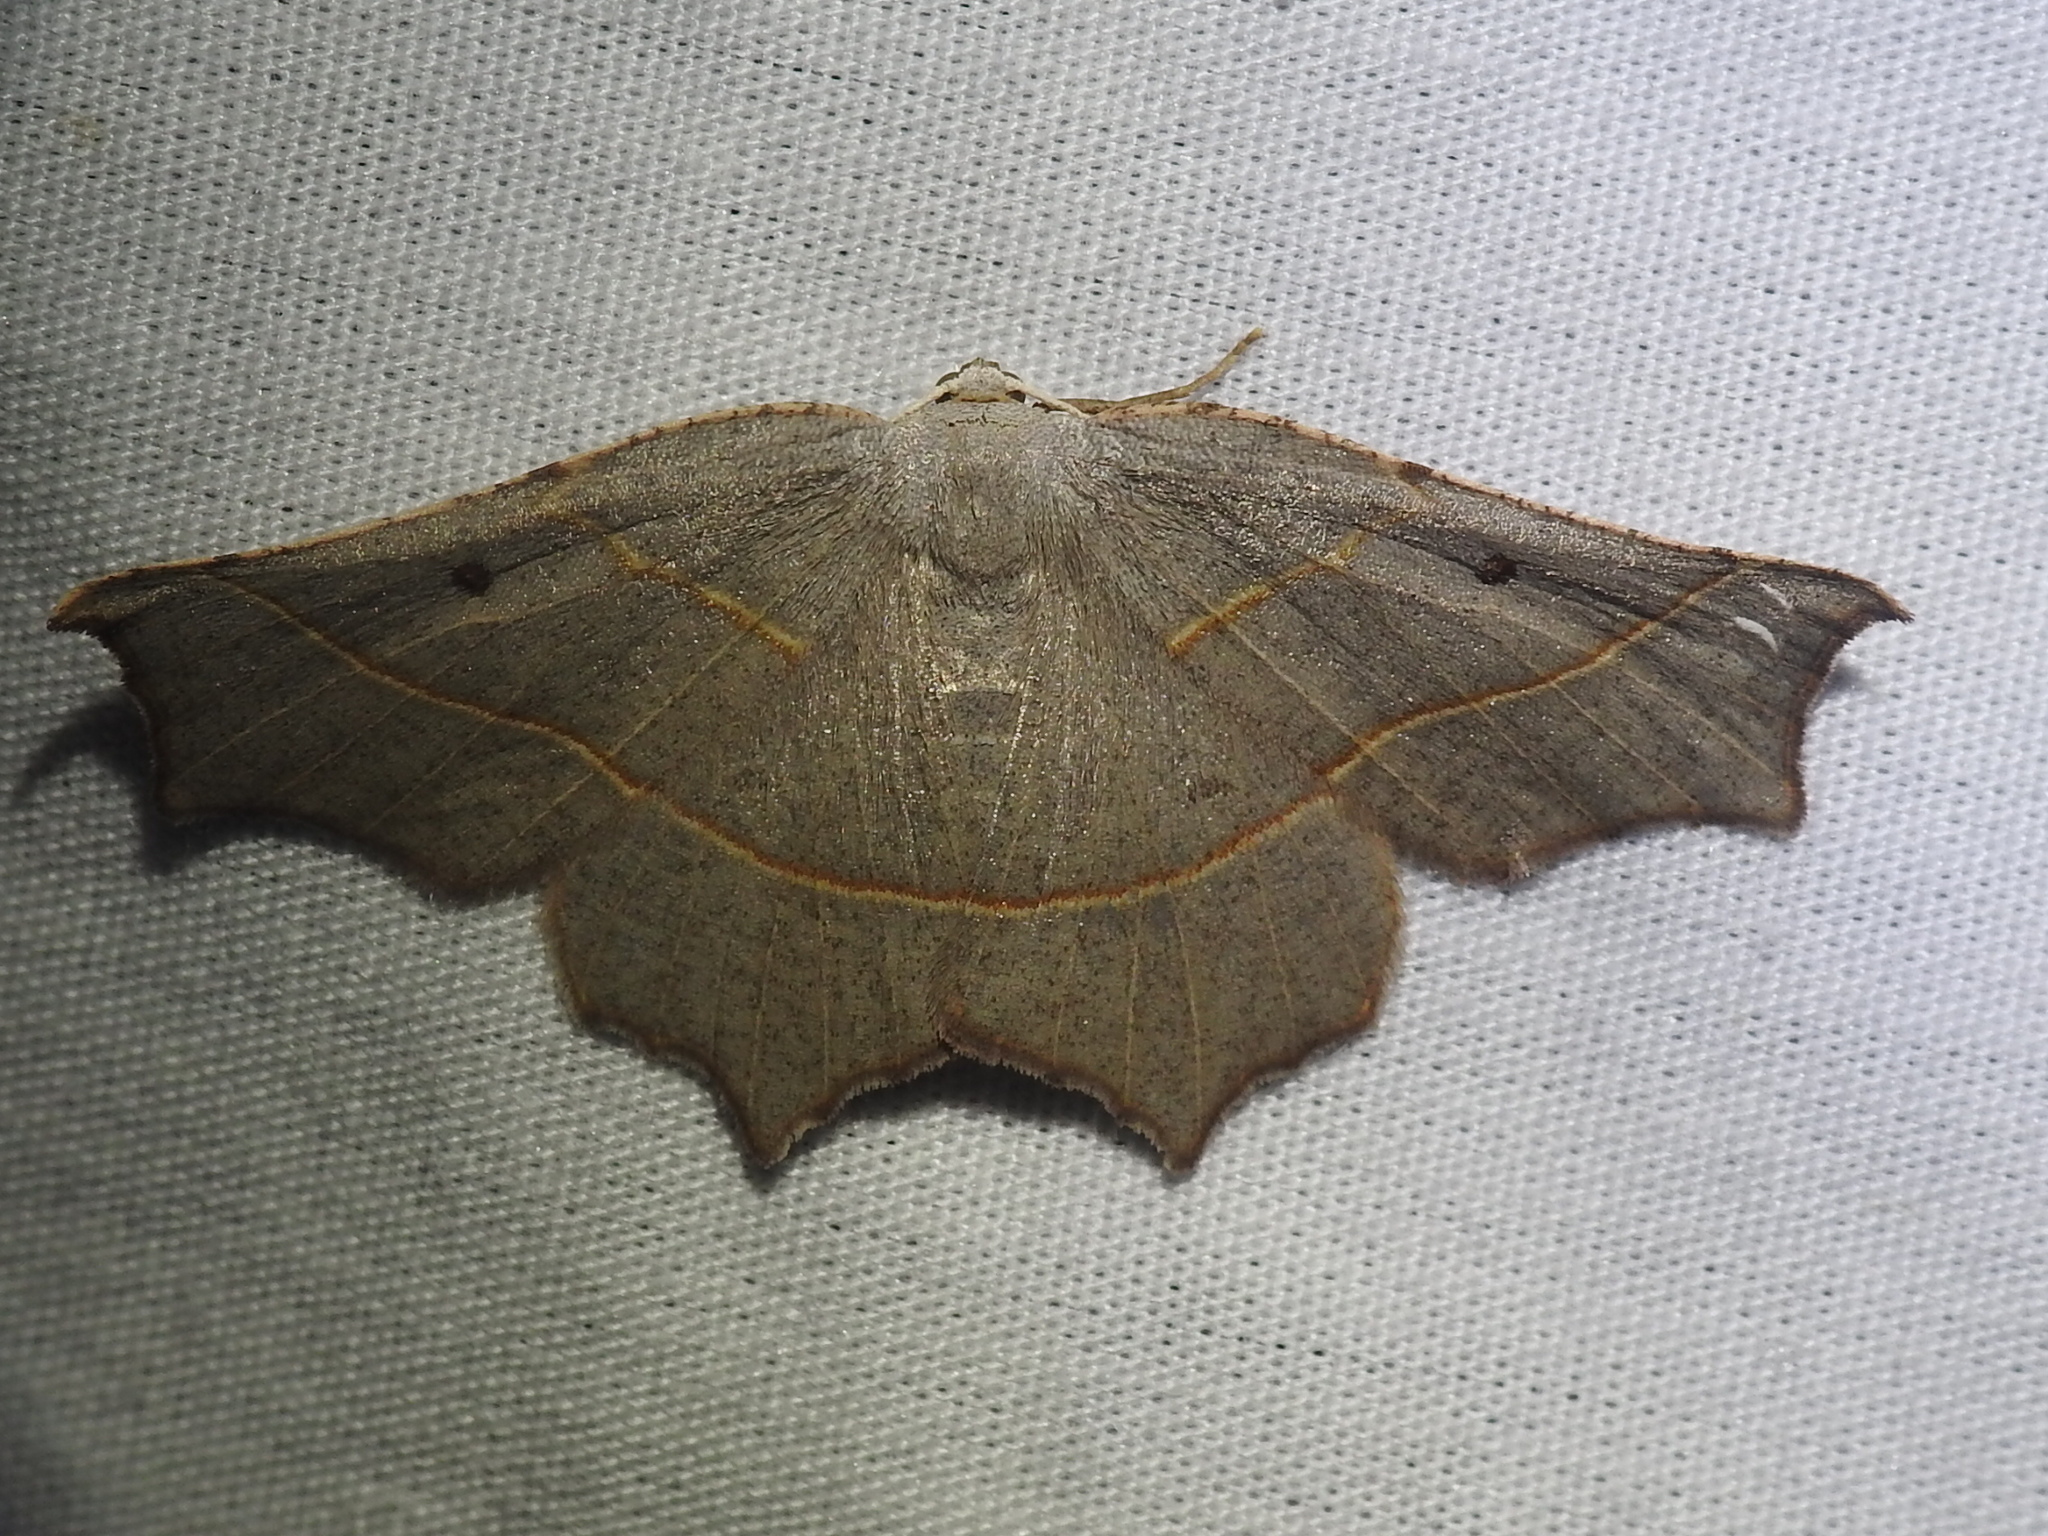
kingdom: Animalia
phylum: Arthropoda
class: Insecta
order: Lepidoptera
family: Geometridae
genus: Metanema
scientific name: Metanema inatomaria
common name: Pale metanema
